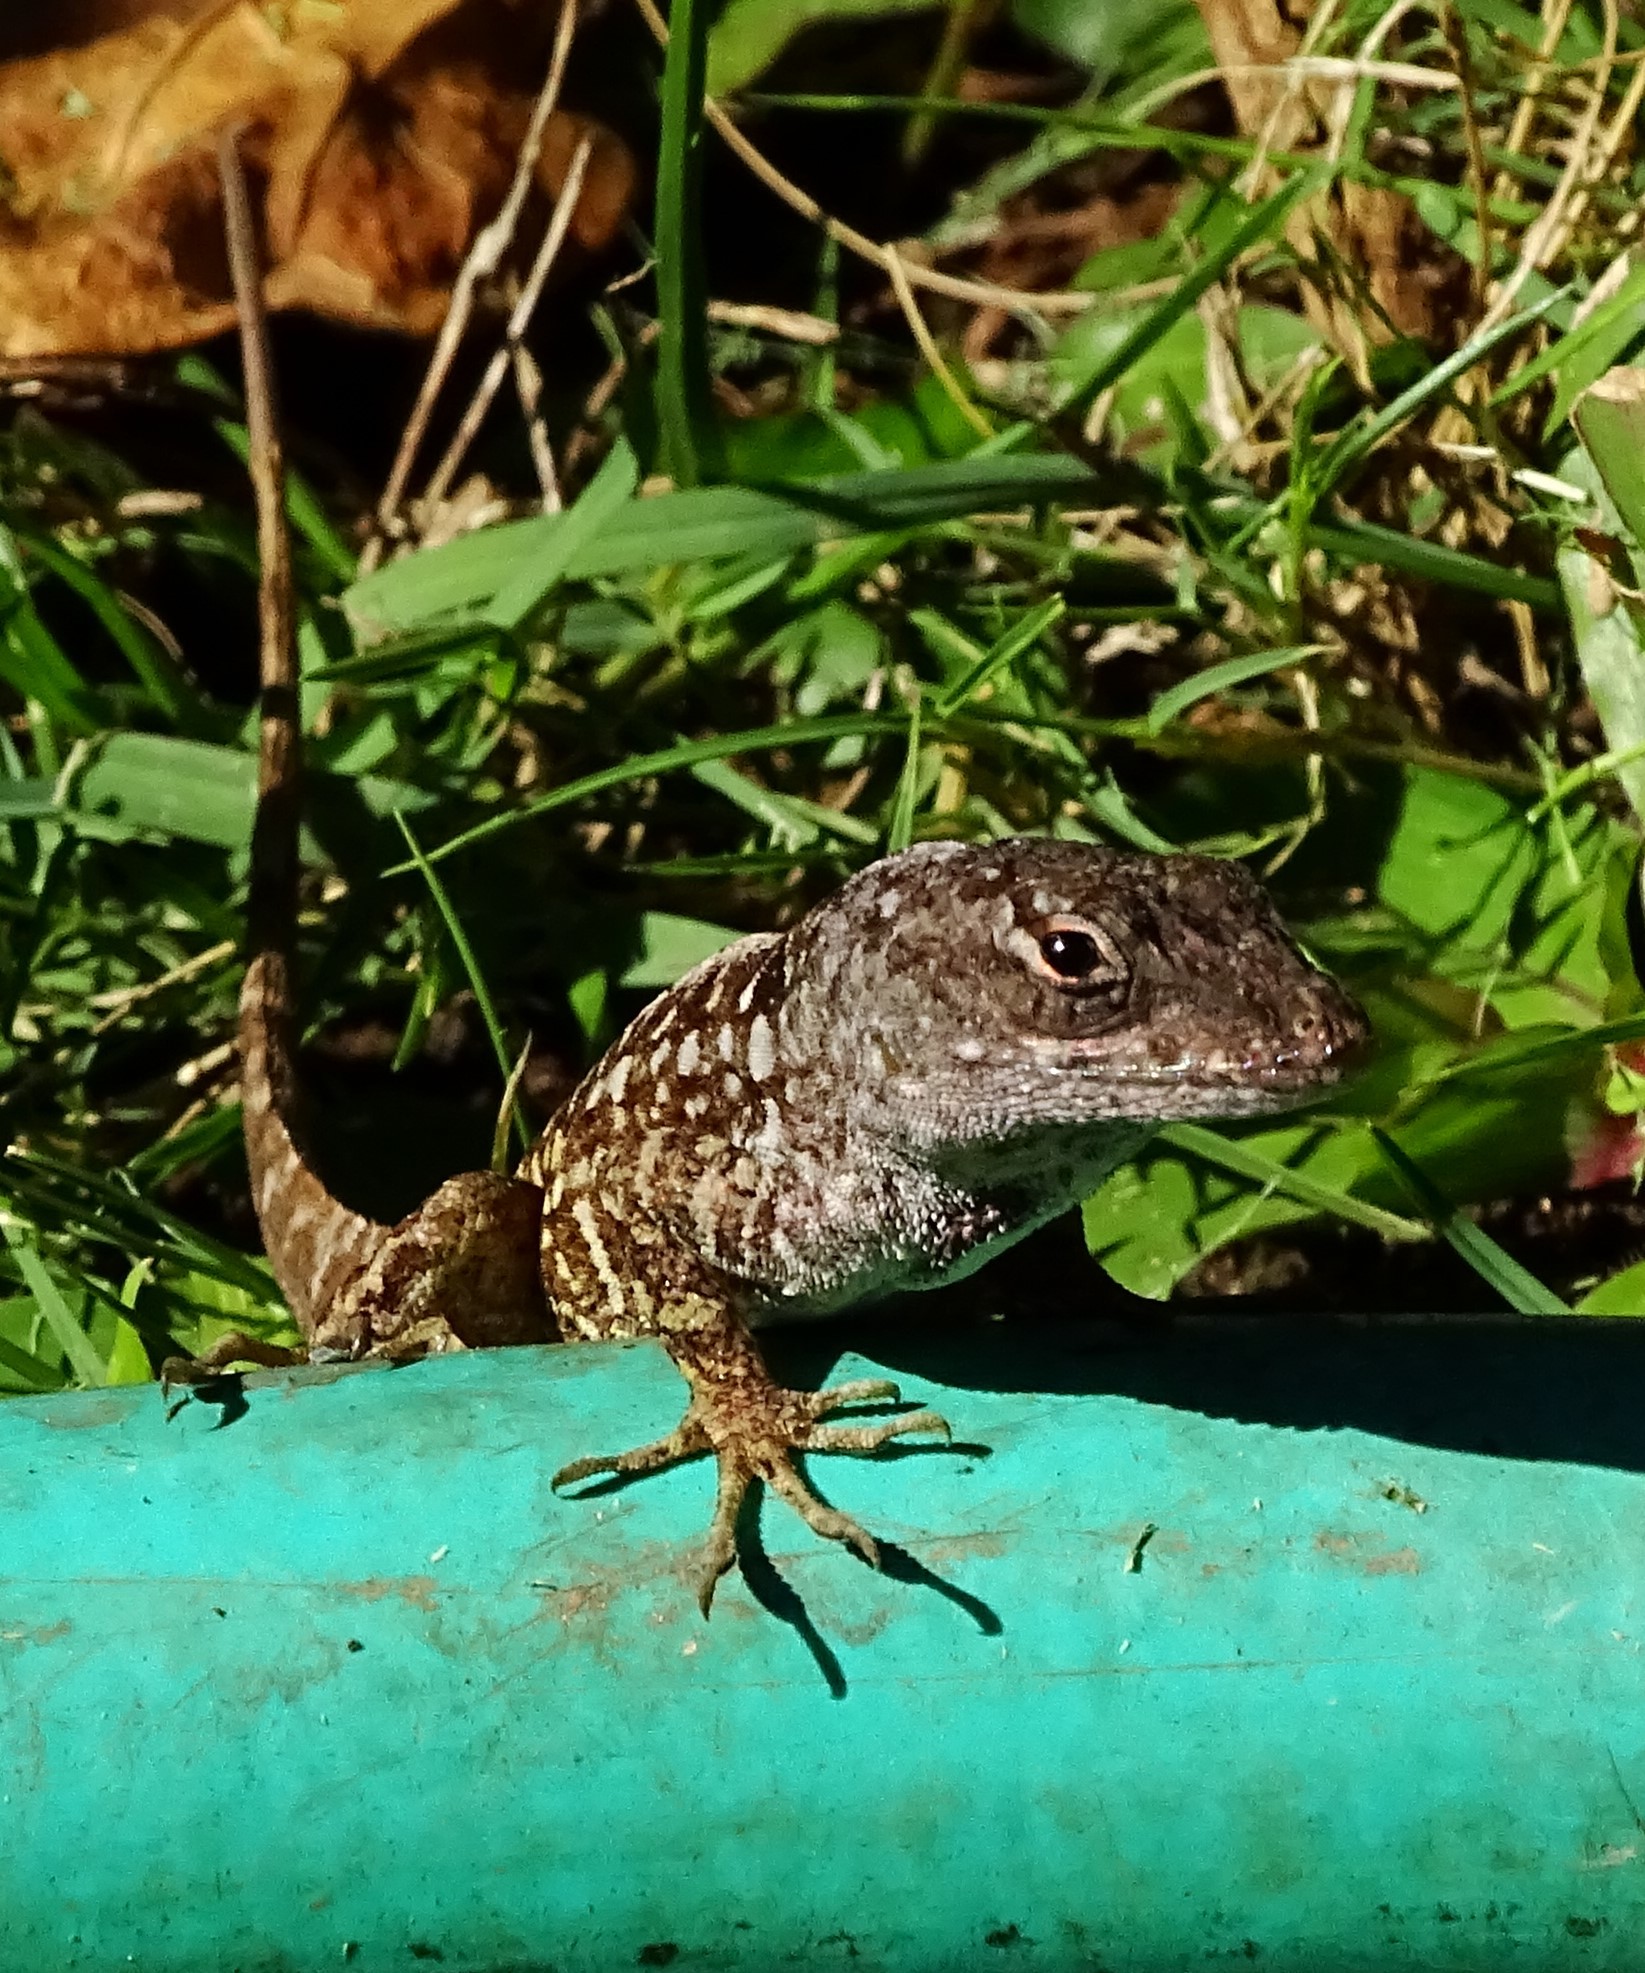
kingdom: Animalia
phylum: Chordata
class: Squamata
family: Dactyloidae
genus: Anolis
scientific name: Anolis sagrei
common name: Brown anole
